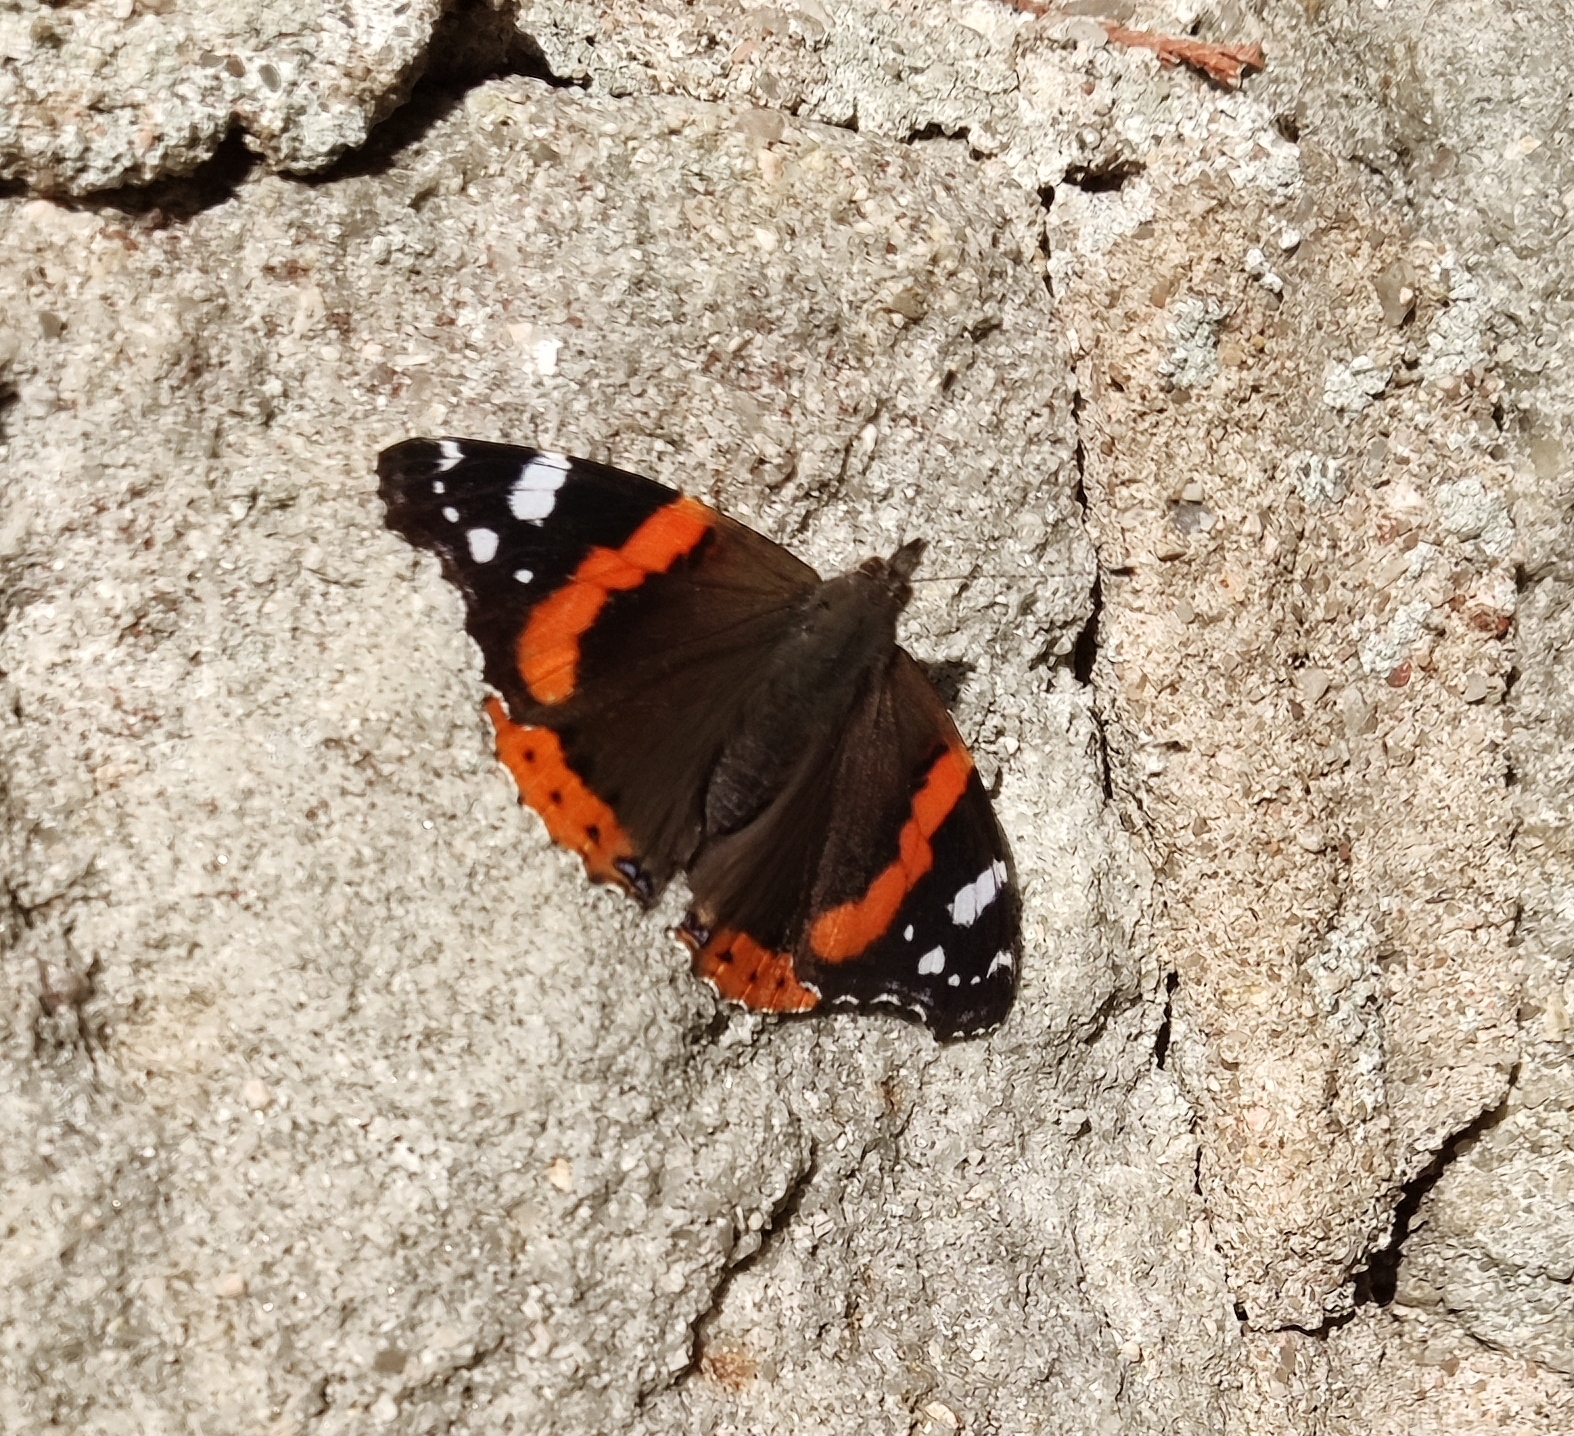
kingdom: Animalia
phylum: Arthropoda
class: Insecta
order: Lepidoptera
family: Nymphalidae
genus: Vanessa
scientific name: Vanessa atalanta
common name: Red admiral
